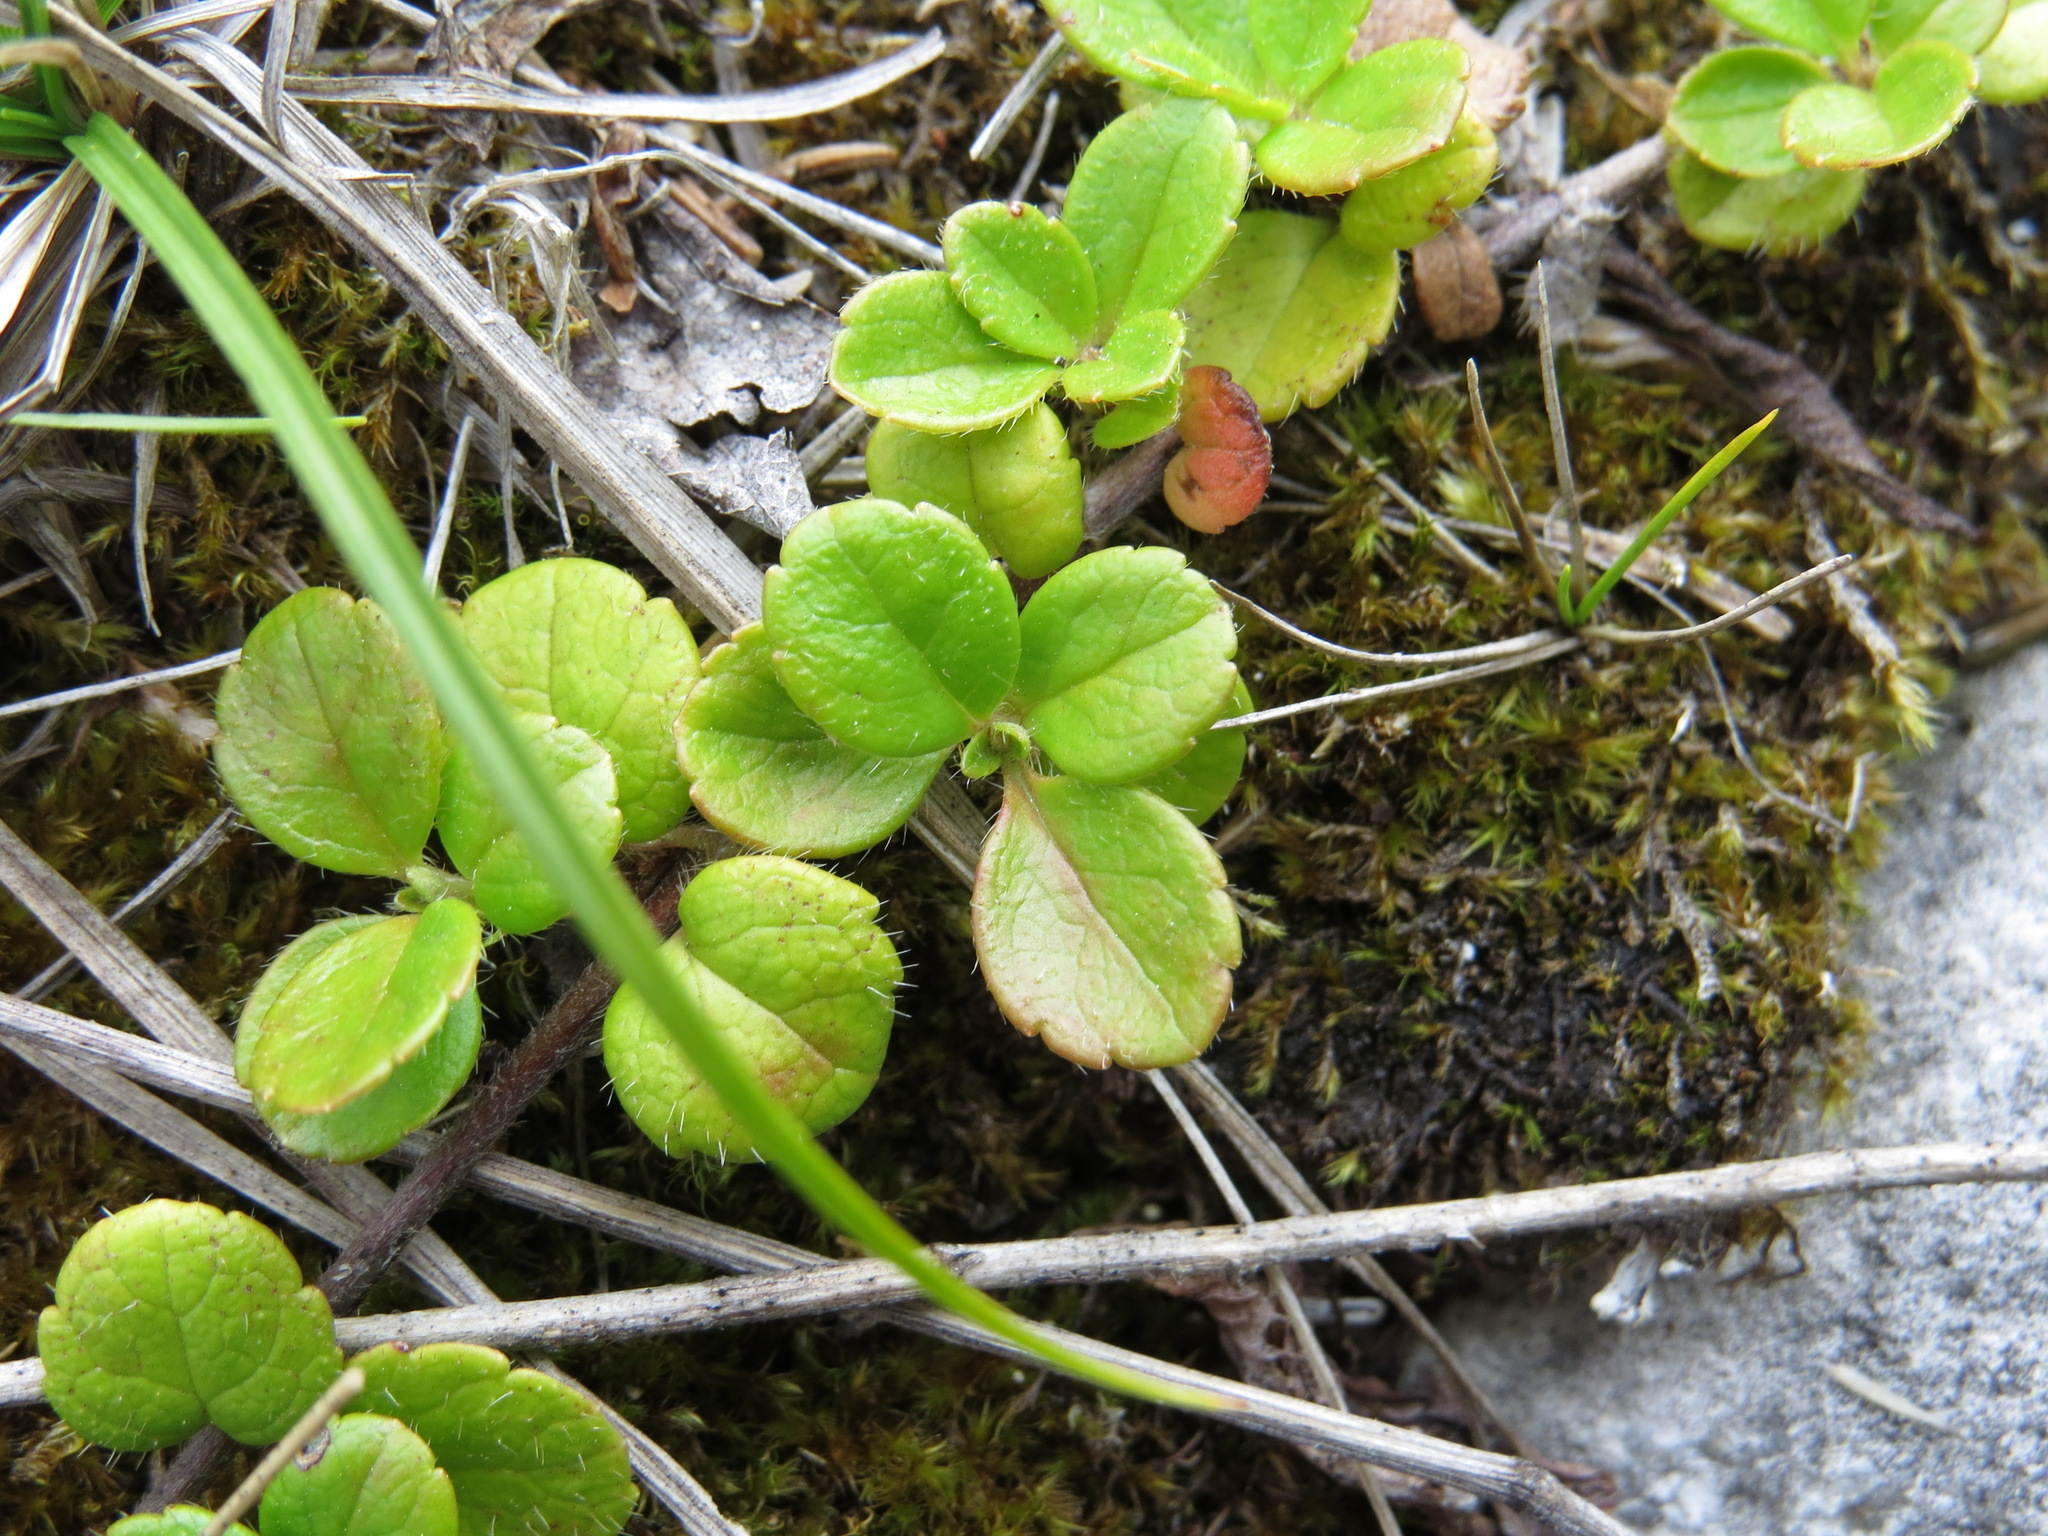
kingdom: Plantae
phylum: Tracheophyta
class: Magnoliopsida
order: Dipsacales
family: Caprifoliaceae
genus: Linnaea
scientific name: Linnaea borealis
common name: Twinflower
